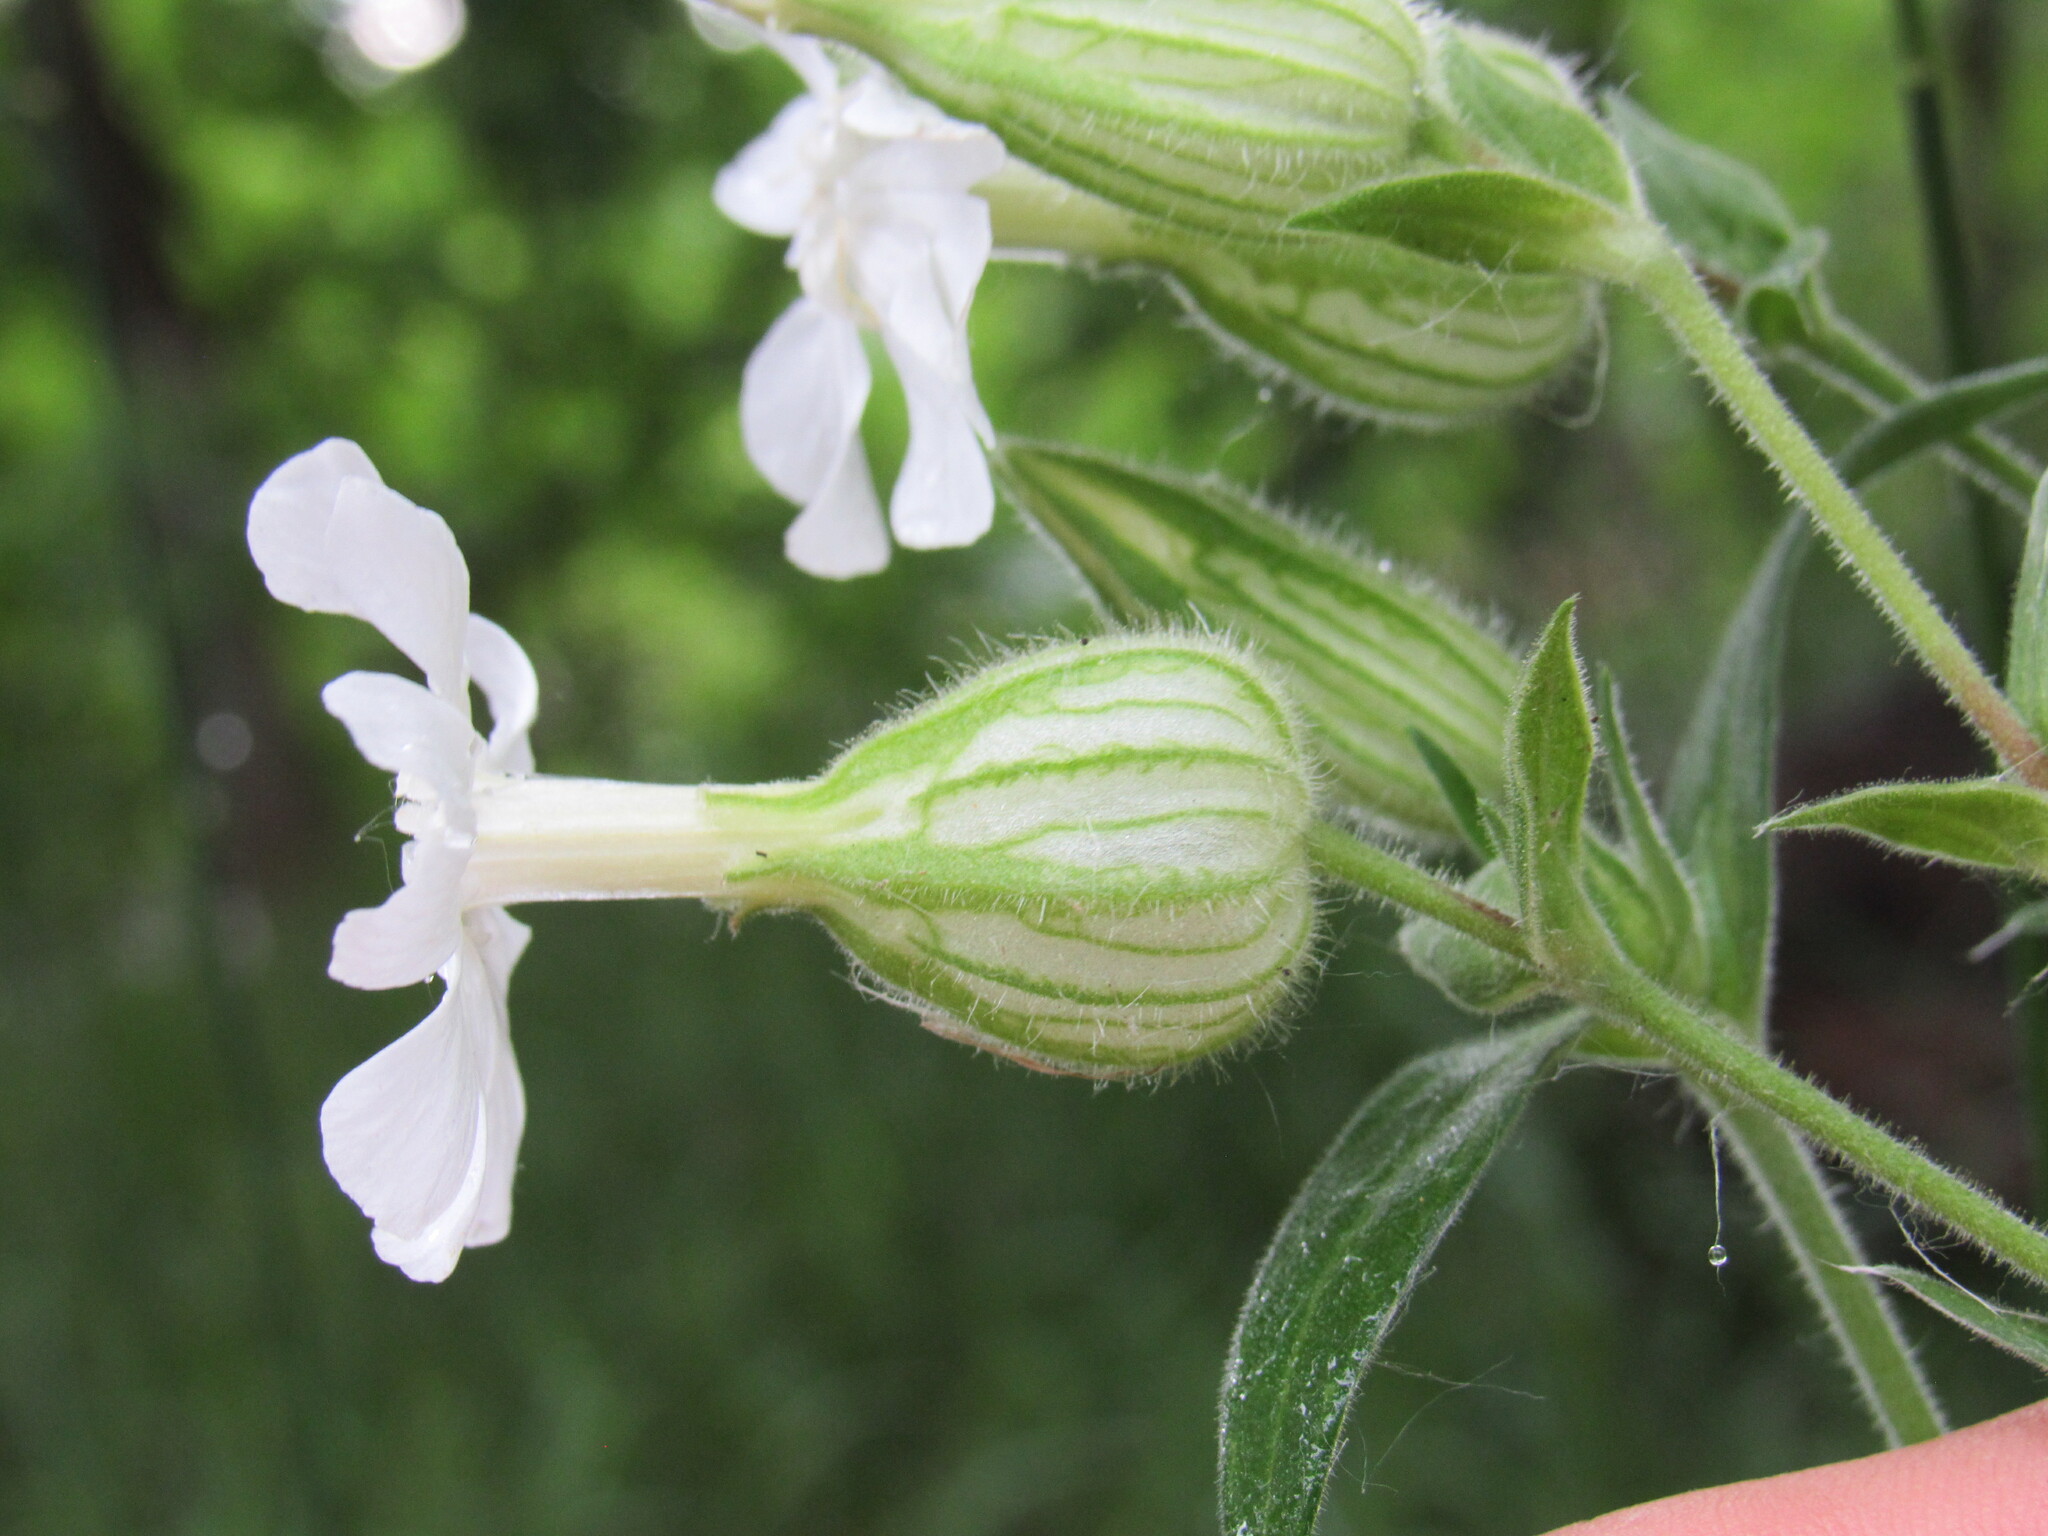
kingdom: Plantae
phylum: Tracheophyta
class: Magnoliopsida
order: Caryophyllales
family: Caryophyllaceae
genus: Silene
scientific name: Silene latifolia
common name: White campion
